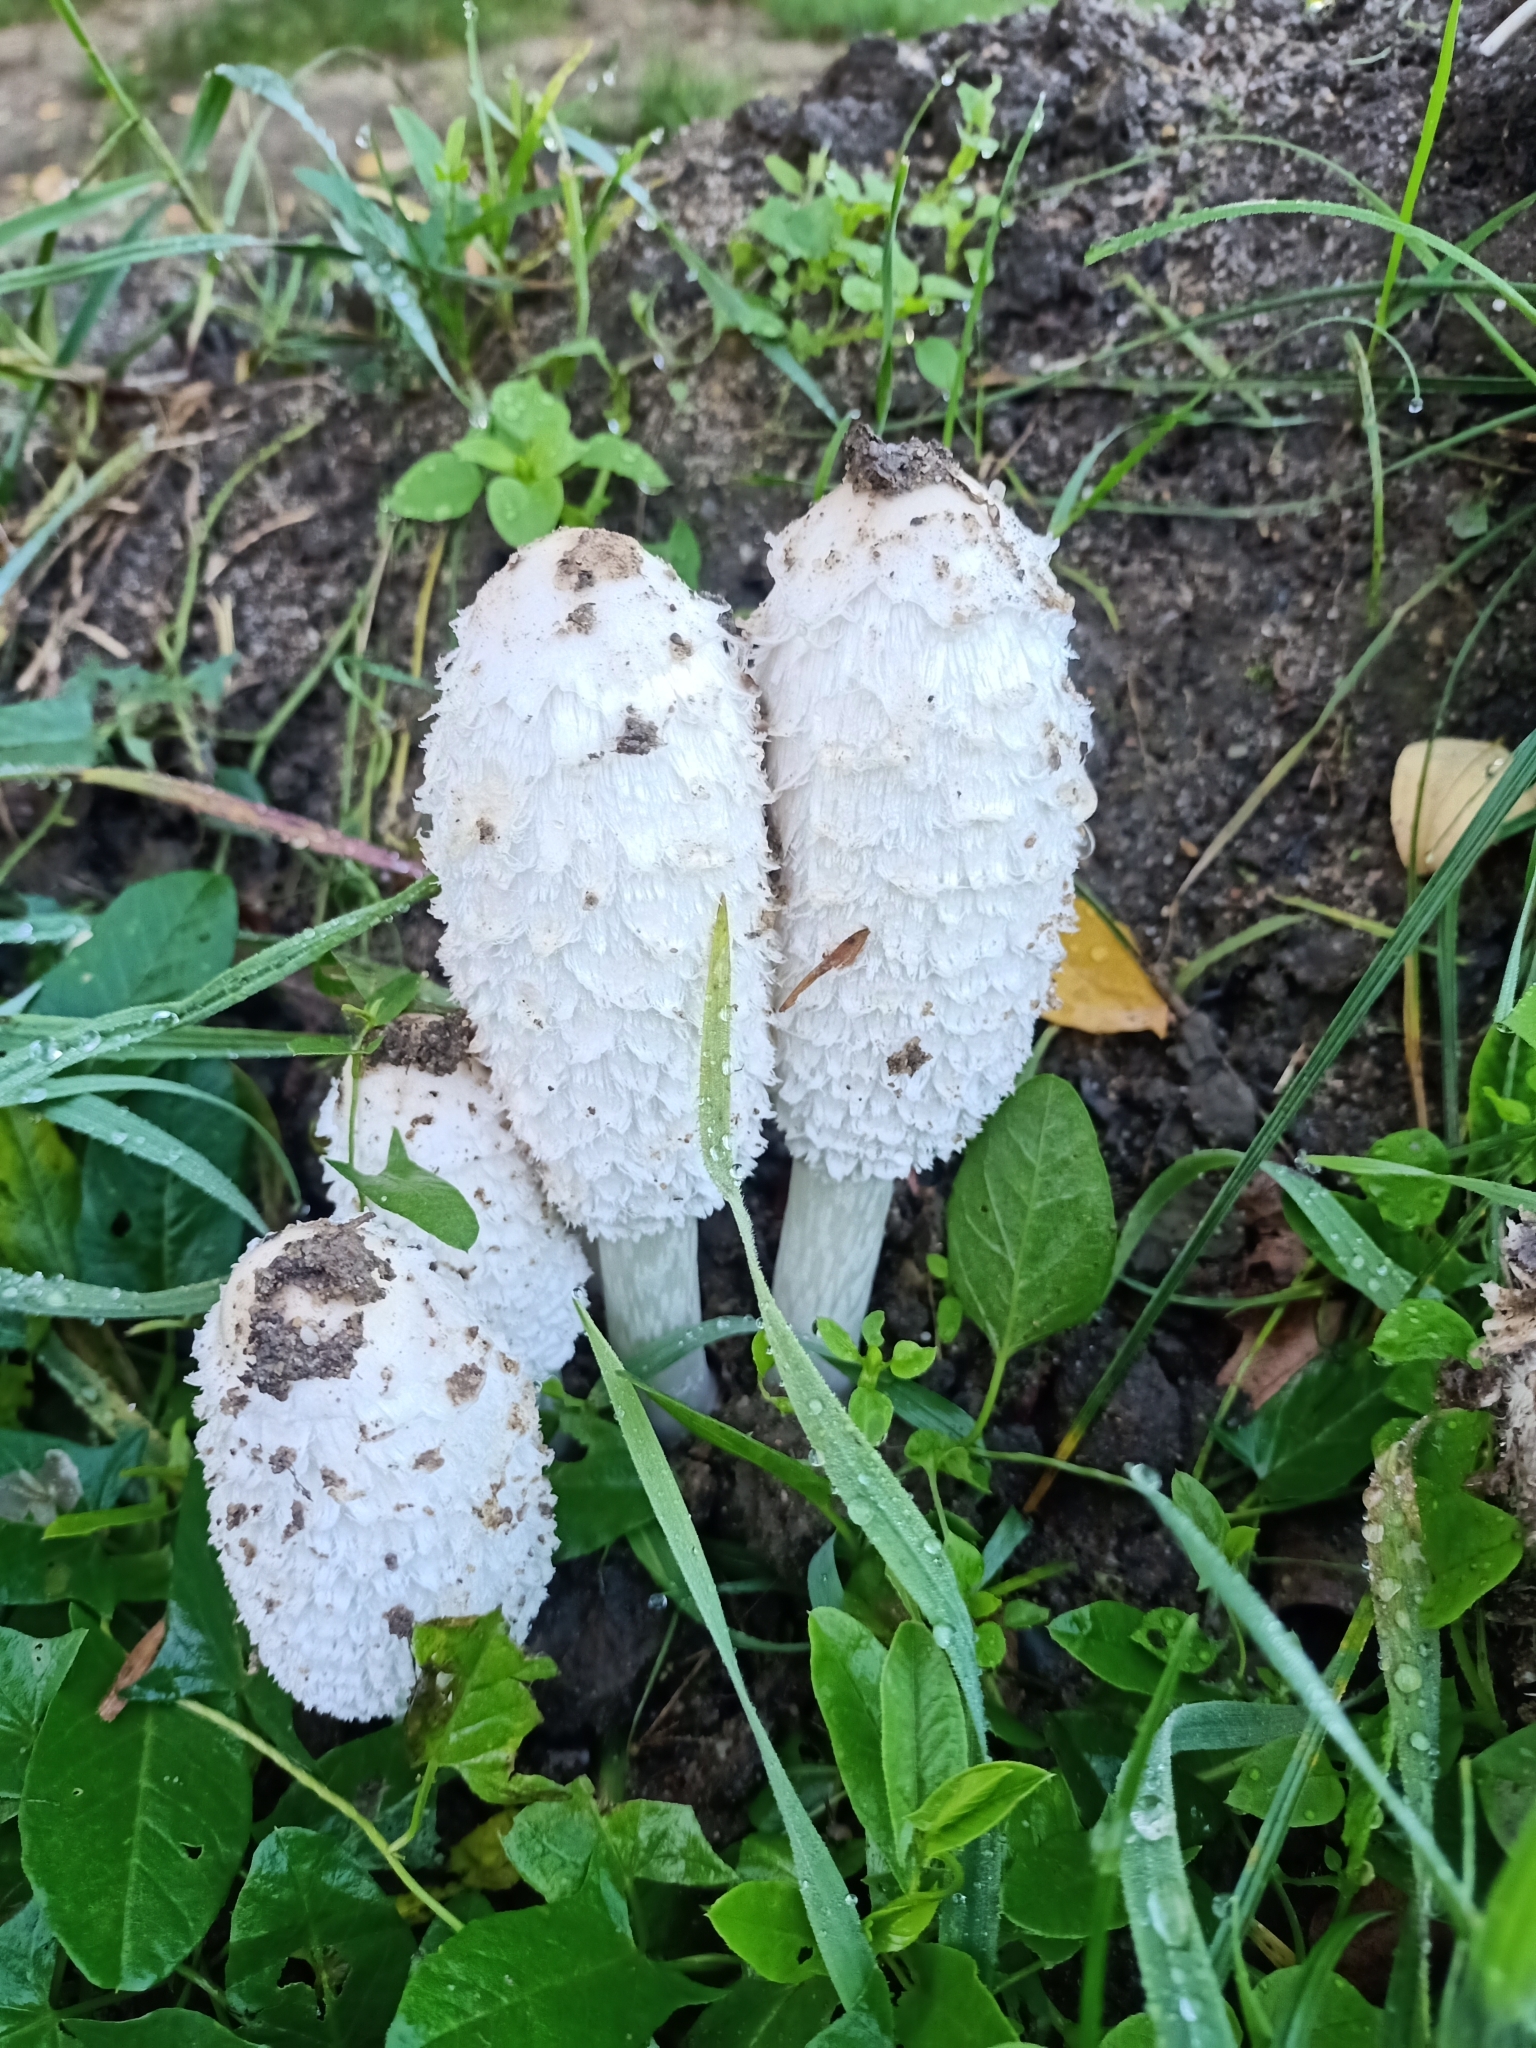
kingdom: Fungi
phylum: Basidiomycota
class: Agaricomycetes
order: Agaricales
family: Agaricaceae
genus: Coprinus
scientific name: Coprinus comatus
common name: Lawyer's wig
